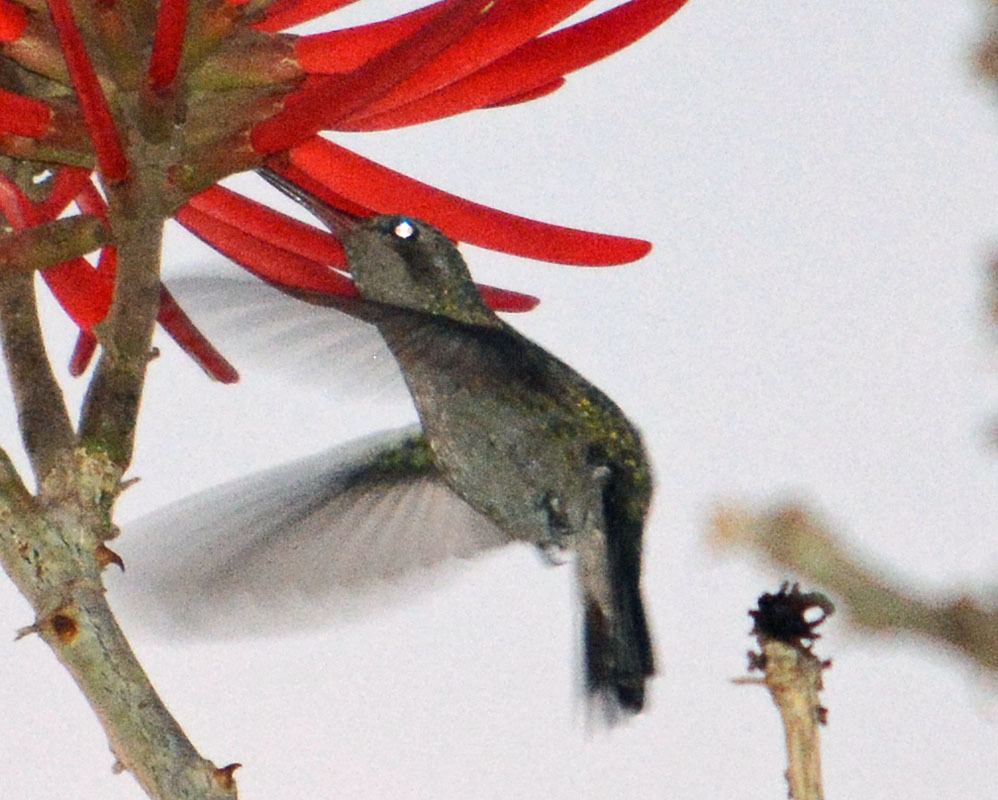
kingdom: Animalia
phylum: Chordata
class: Aves
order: Apodiformes
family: Trochilidae
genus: Cynanthus
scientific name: Cynanthus latirostris
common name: Broad-billed hummingbird
